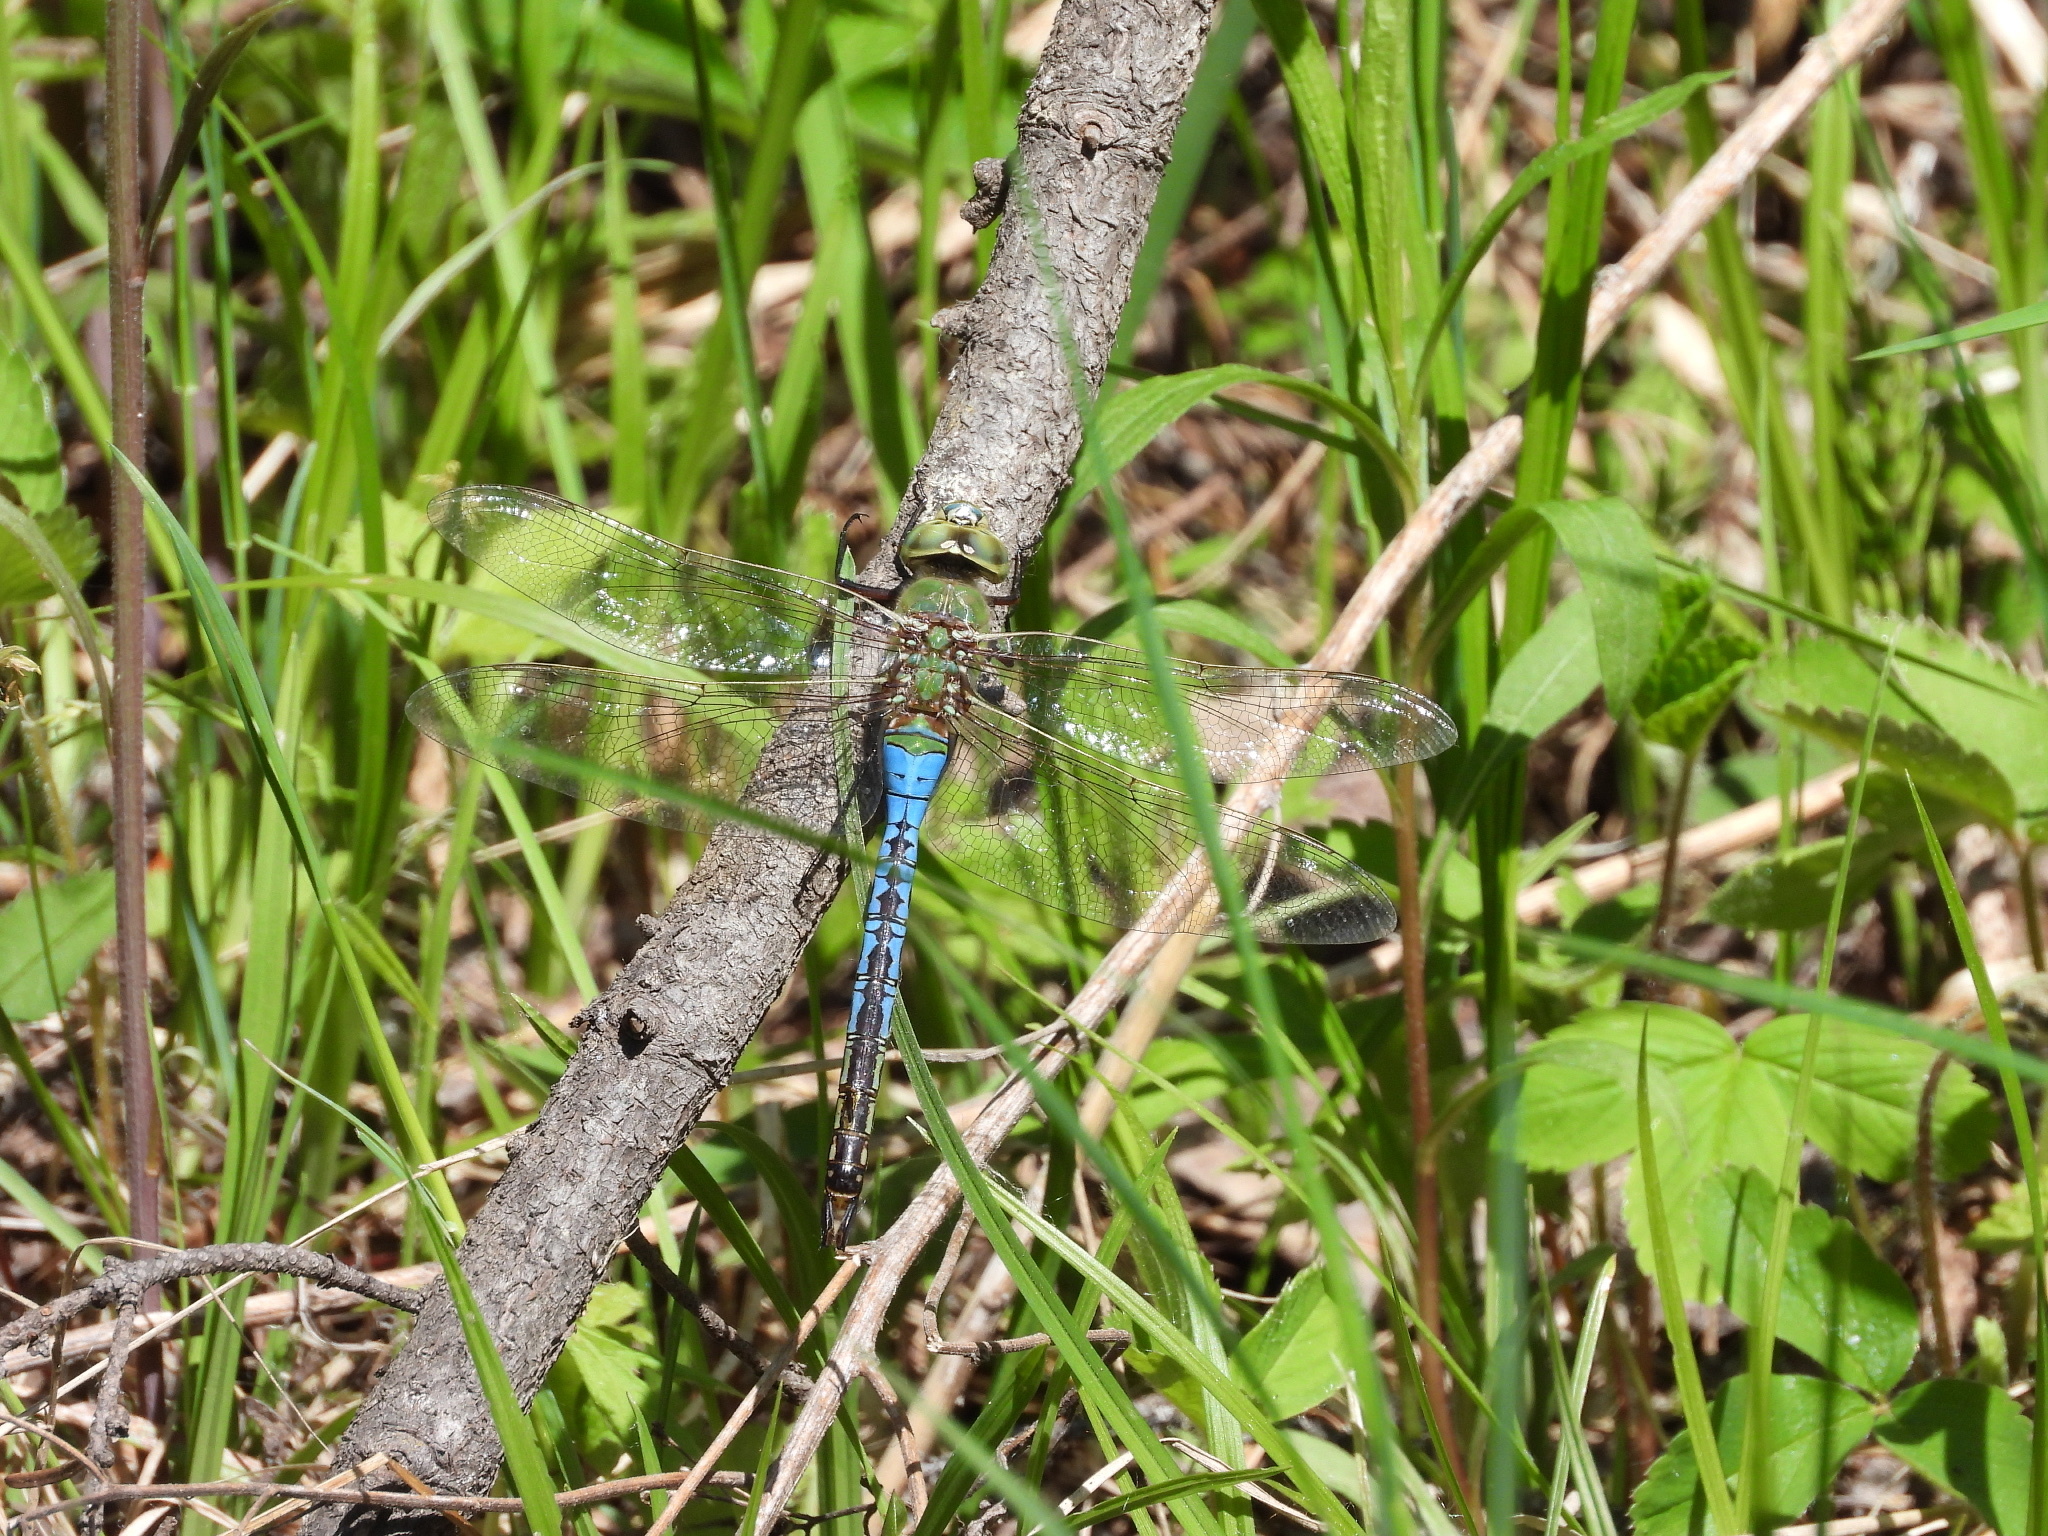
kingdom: Animalia
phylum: Arthropoda
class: Insecta
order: Odonata
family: Aeshnidae
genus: Anax
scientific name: Anax junius
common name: Common green darner
